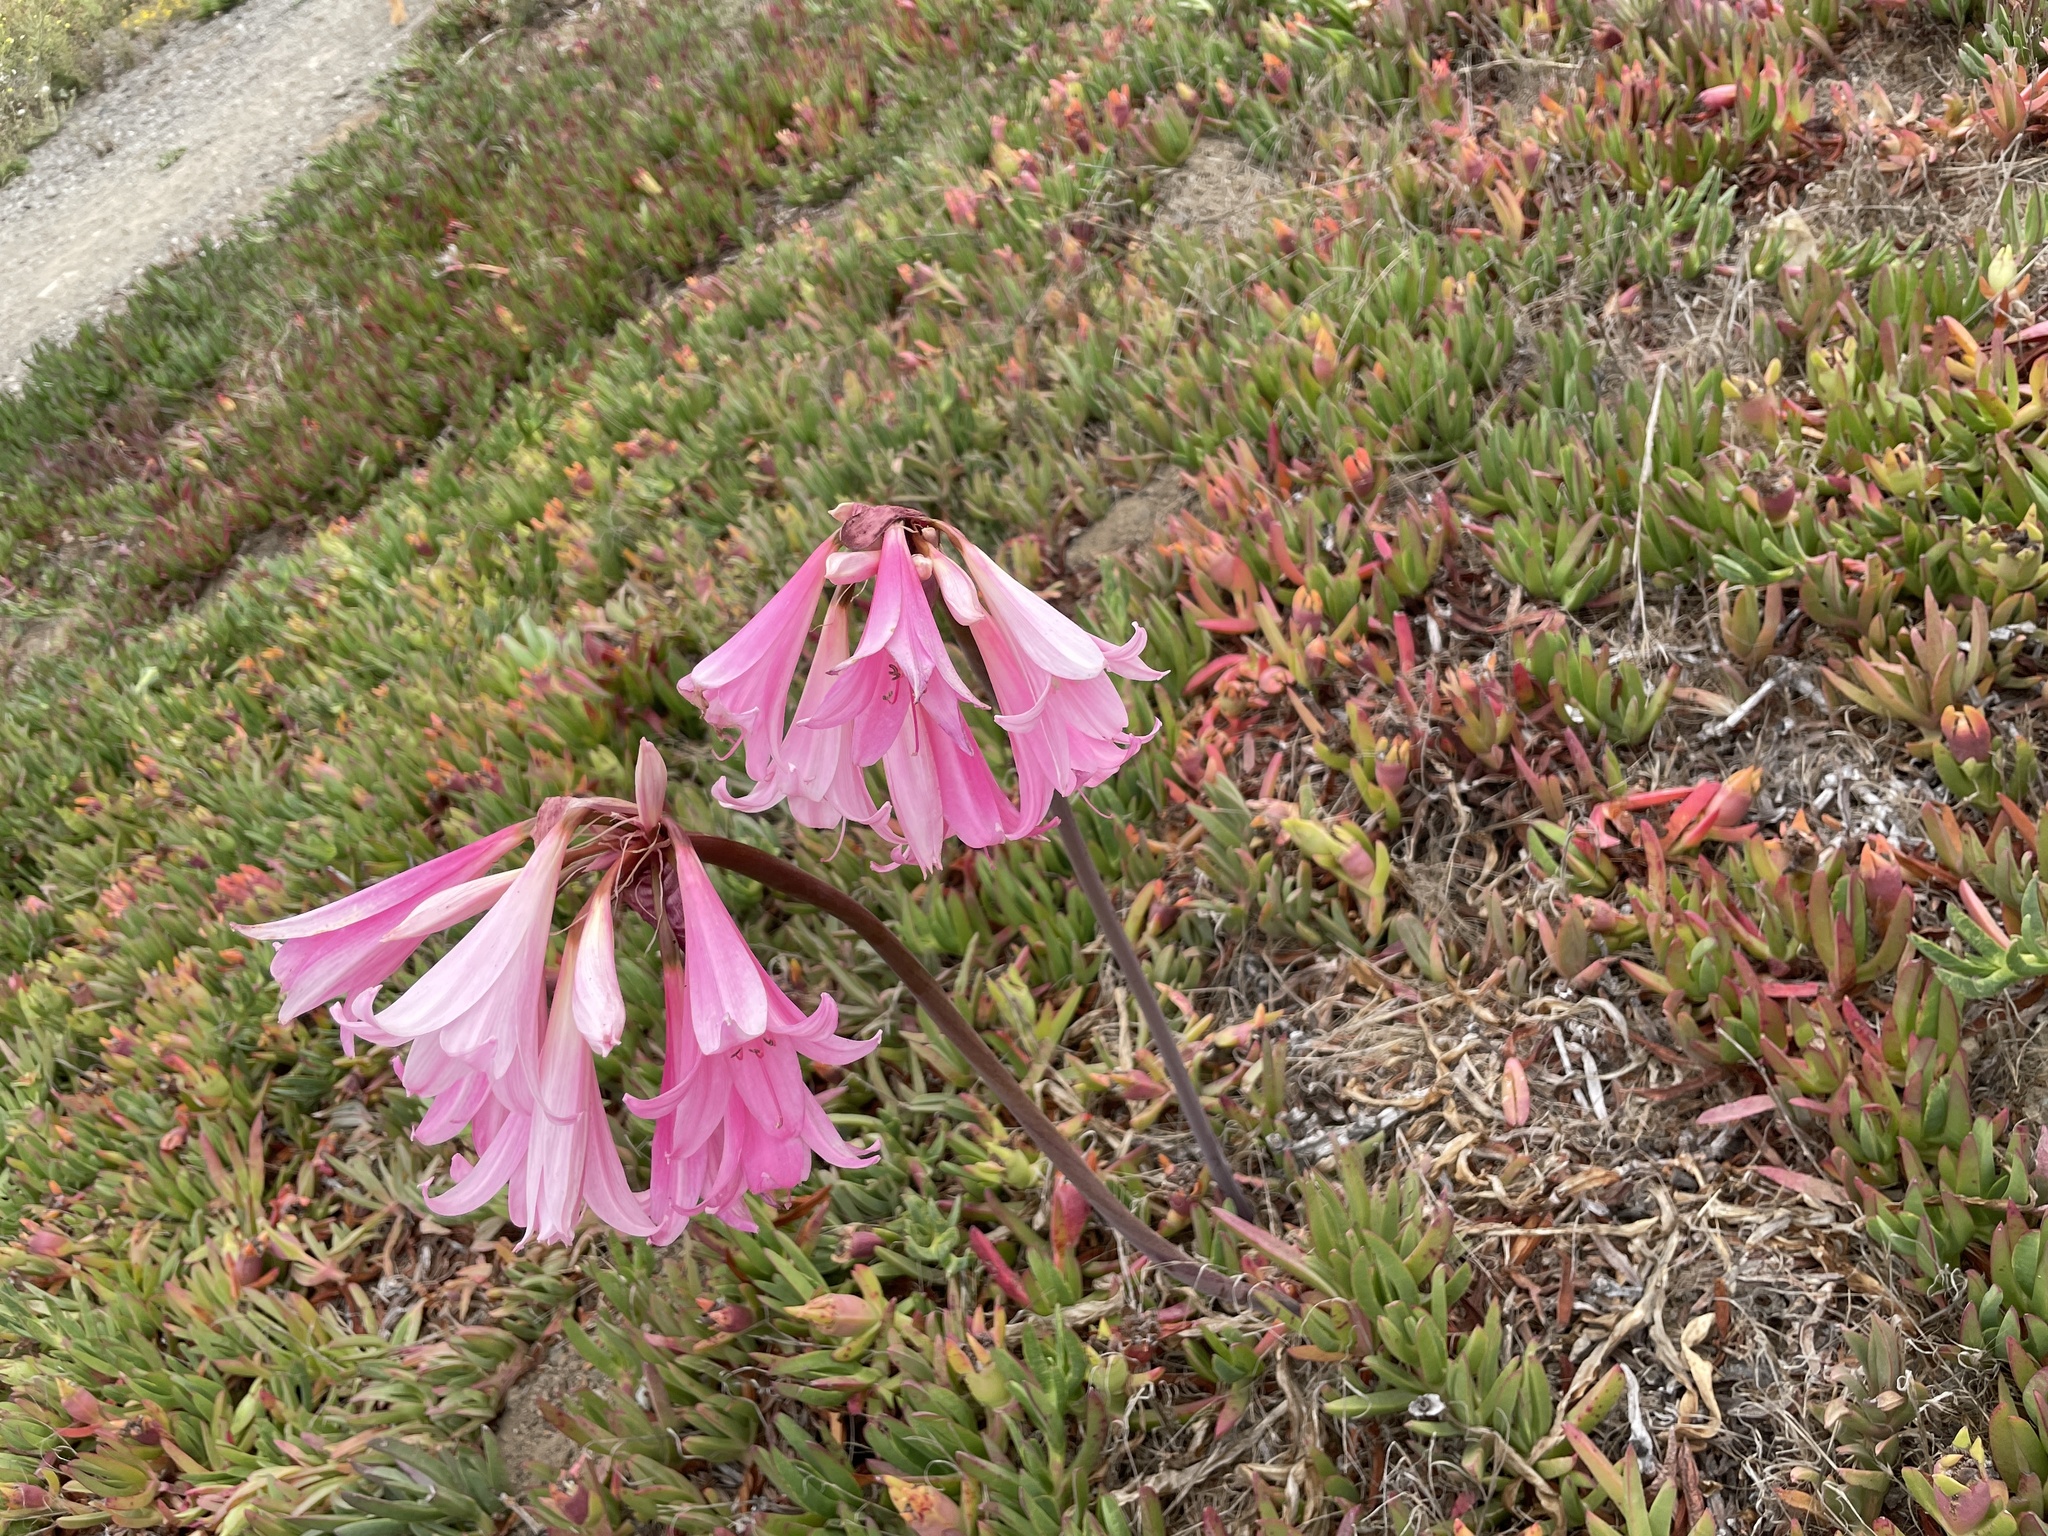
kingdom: Plantae
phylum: Tracheophyta
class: Liliopsida
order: Asparagales
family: Amaryllidaceae
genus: Amaryllis
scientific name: Amaryllis belladonna
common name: Jersey lily
